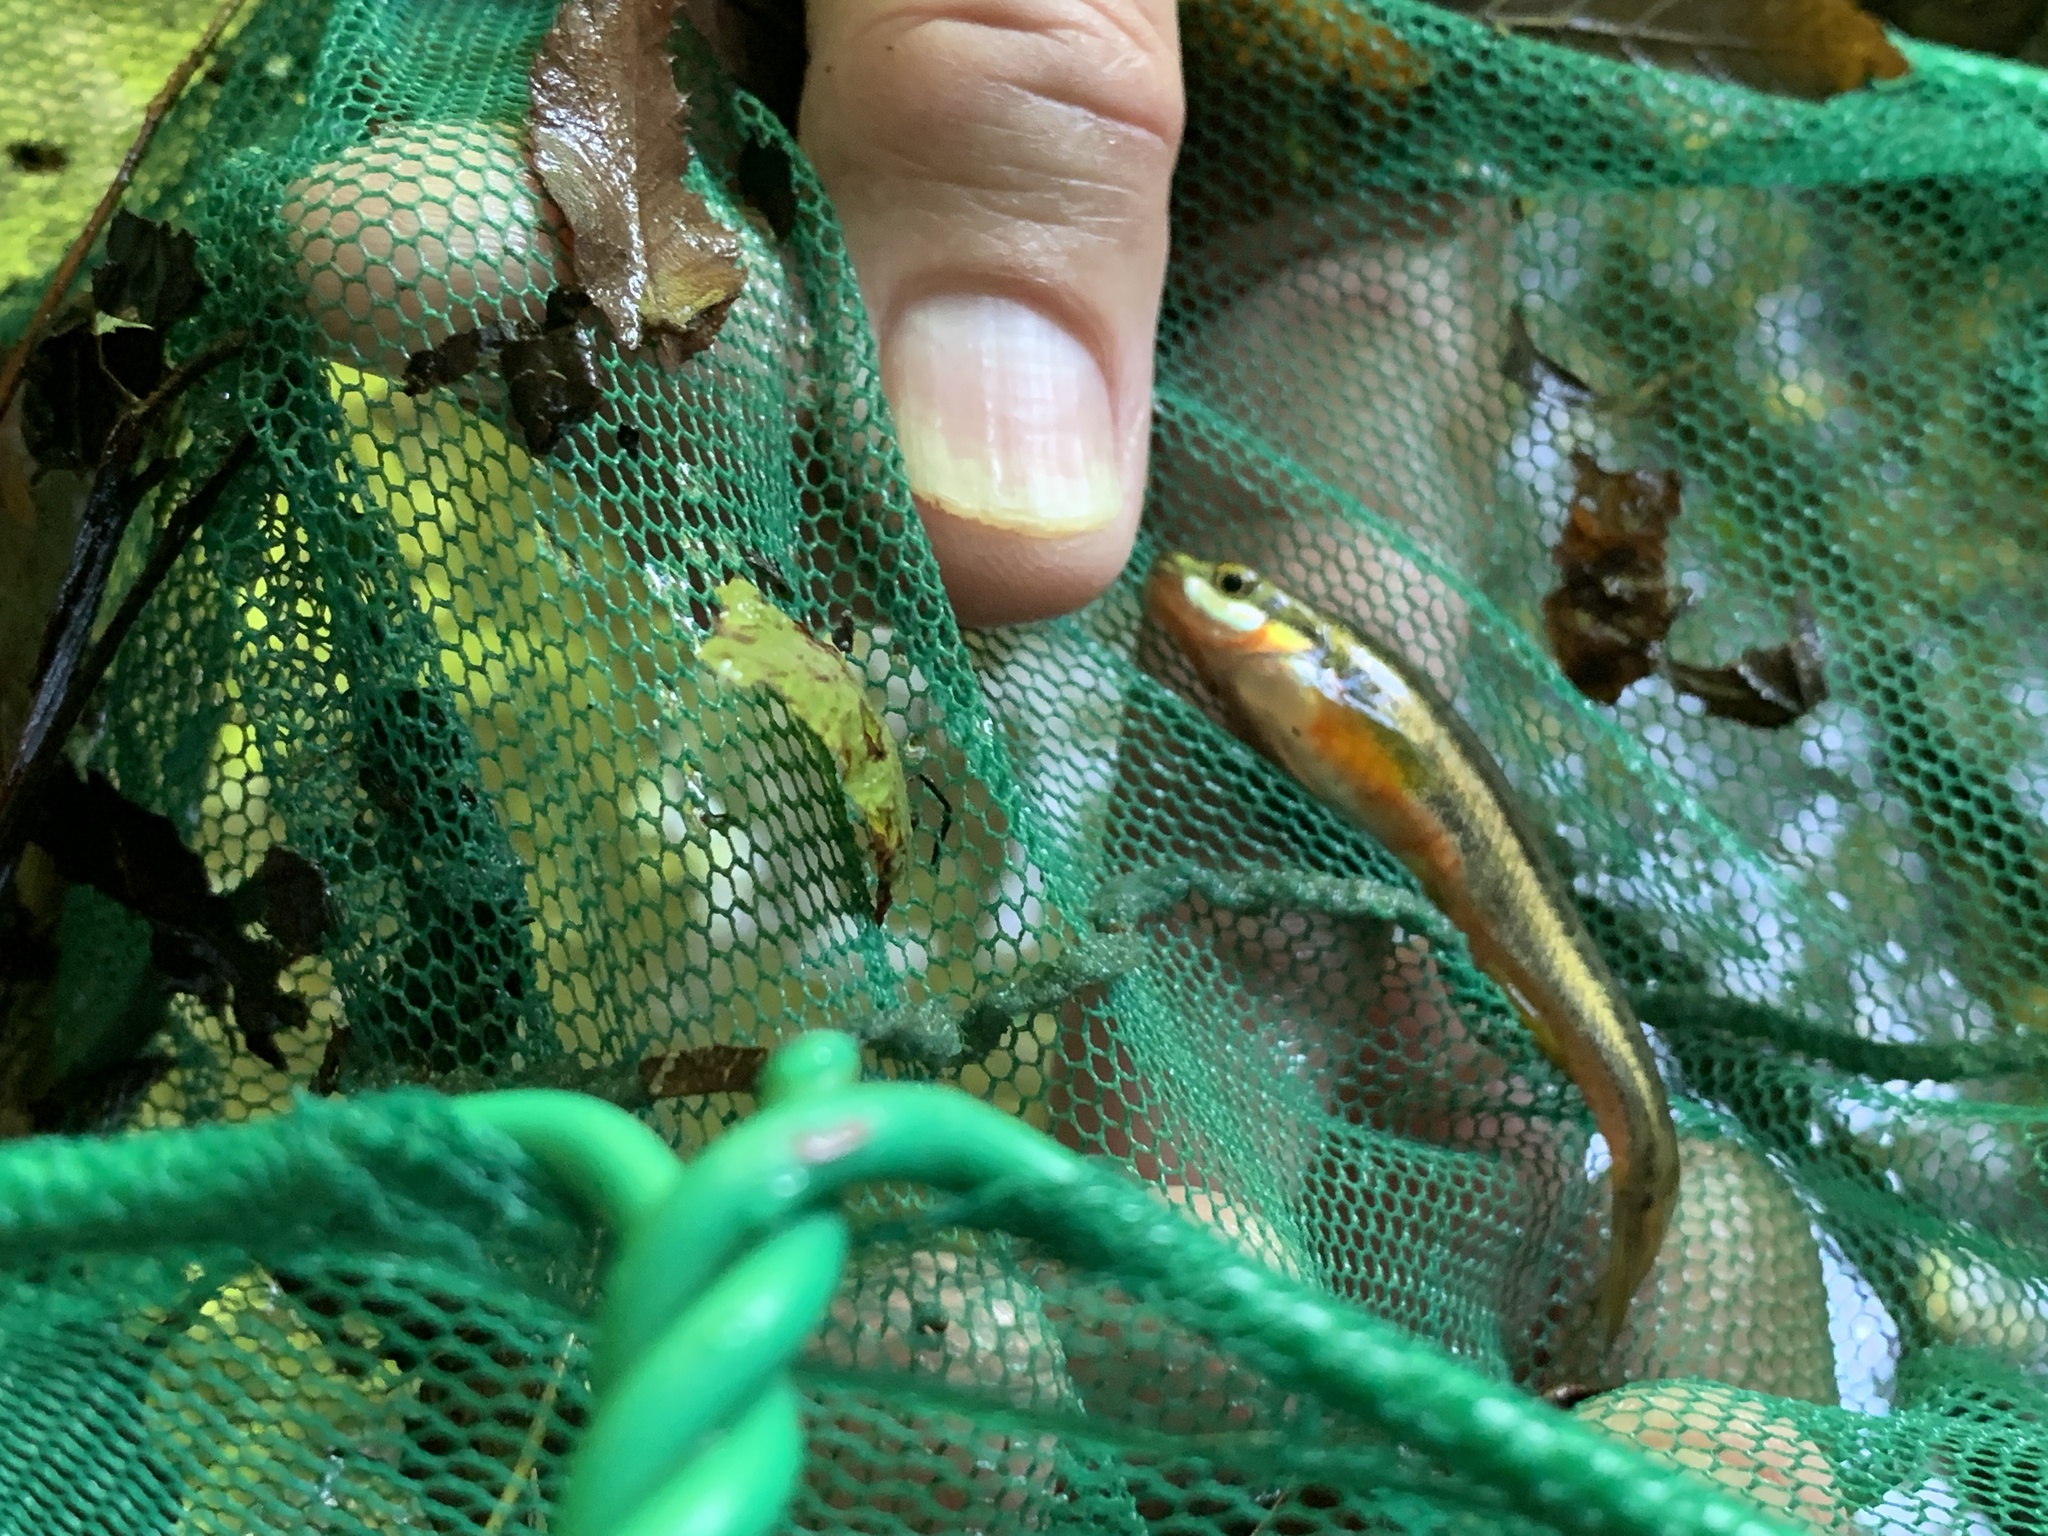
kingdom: Animalia
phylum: Chordata
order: Cypriniformes
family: Cyprinidae
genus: Chrosomus
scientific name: Chrosomus erythrogaster
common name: Southern redbelly dace
